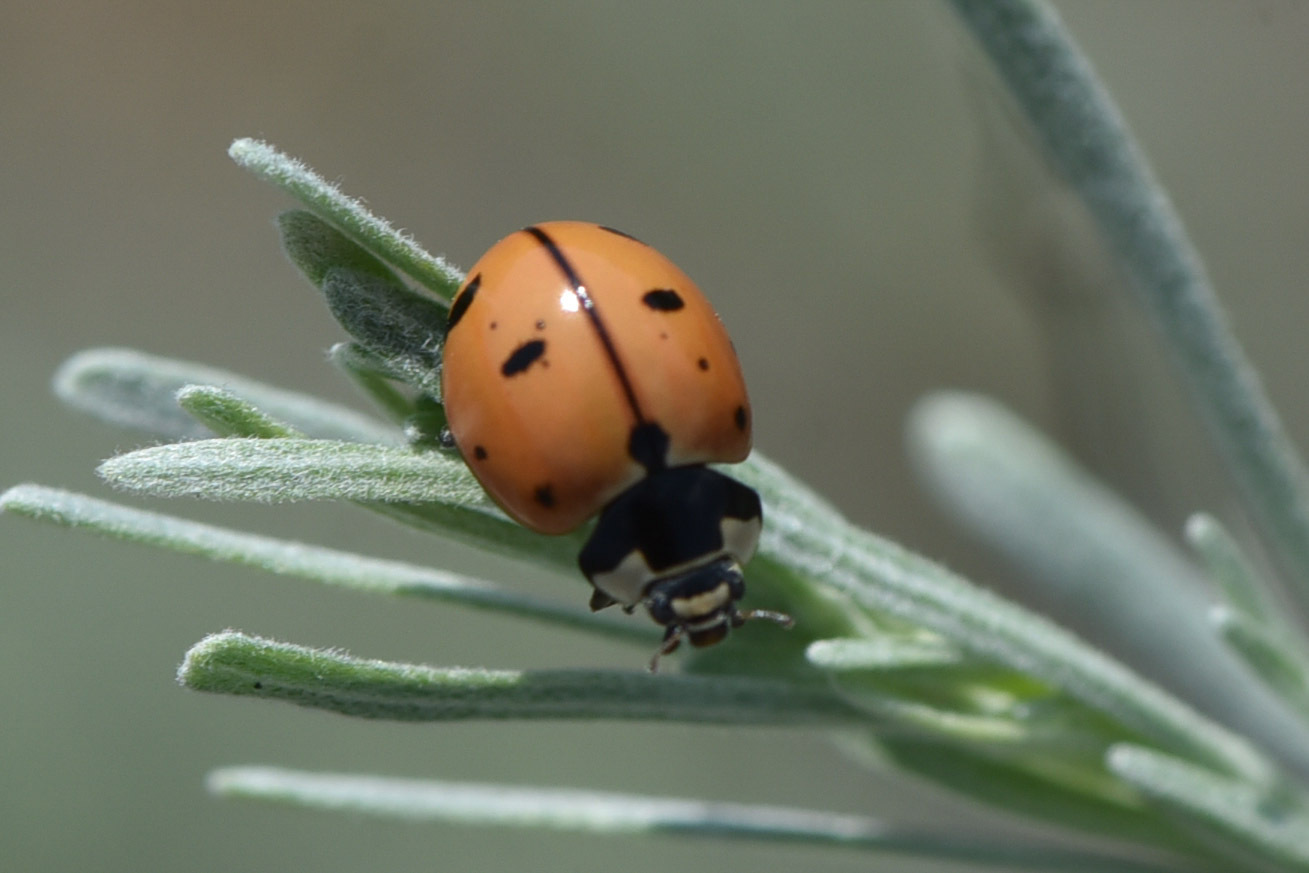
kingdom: Animalia
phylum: Arthropoda
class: Insecta
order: Coleoptera
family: Coccinellidae
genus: Coccinella
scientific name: Coccinella novemnotata
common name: Nine-spotted lady beetle
